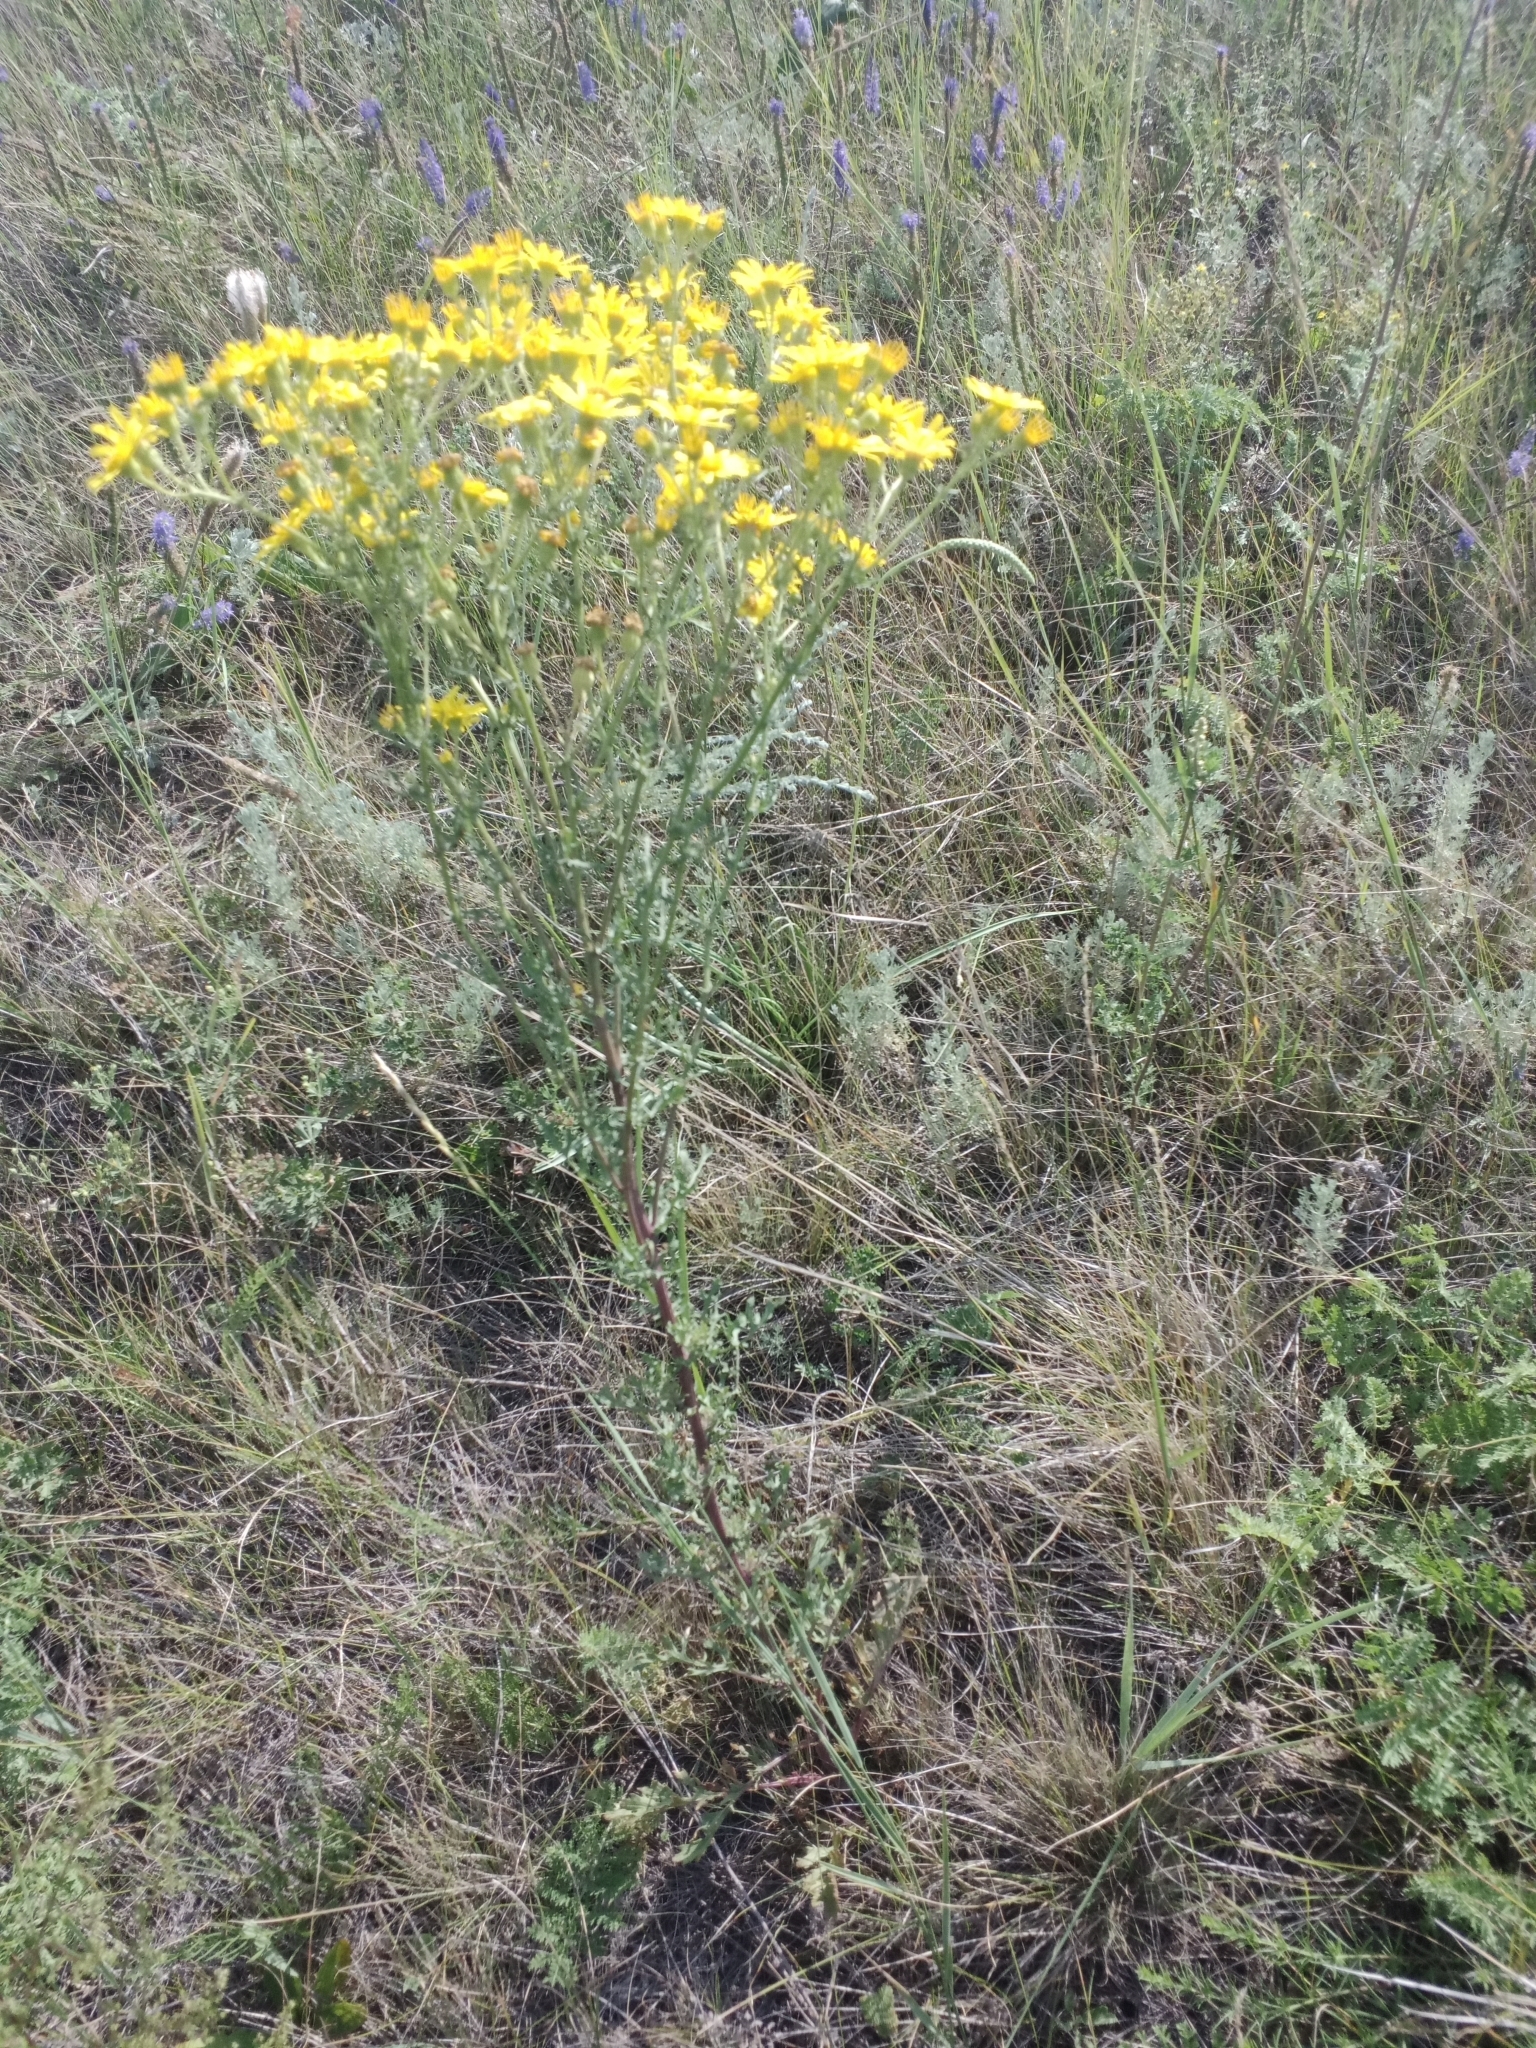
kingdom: Plantae
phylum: Tracheophyta
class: Magnoliopsida
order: Asterales
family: Asteraceae
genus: Jacobaea
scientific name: Jacobaea vulgaris
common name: Stinking willie
